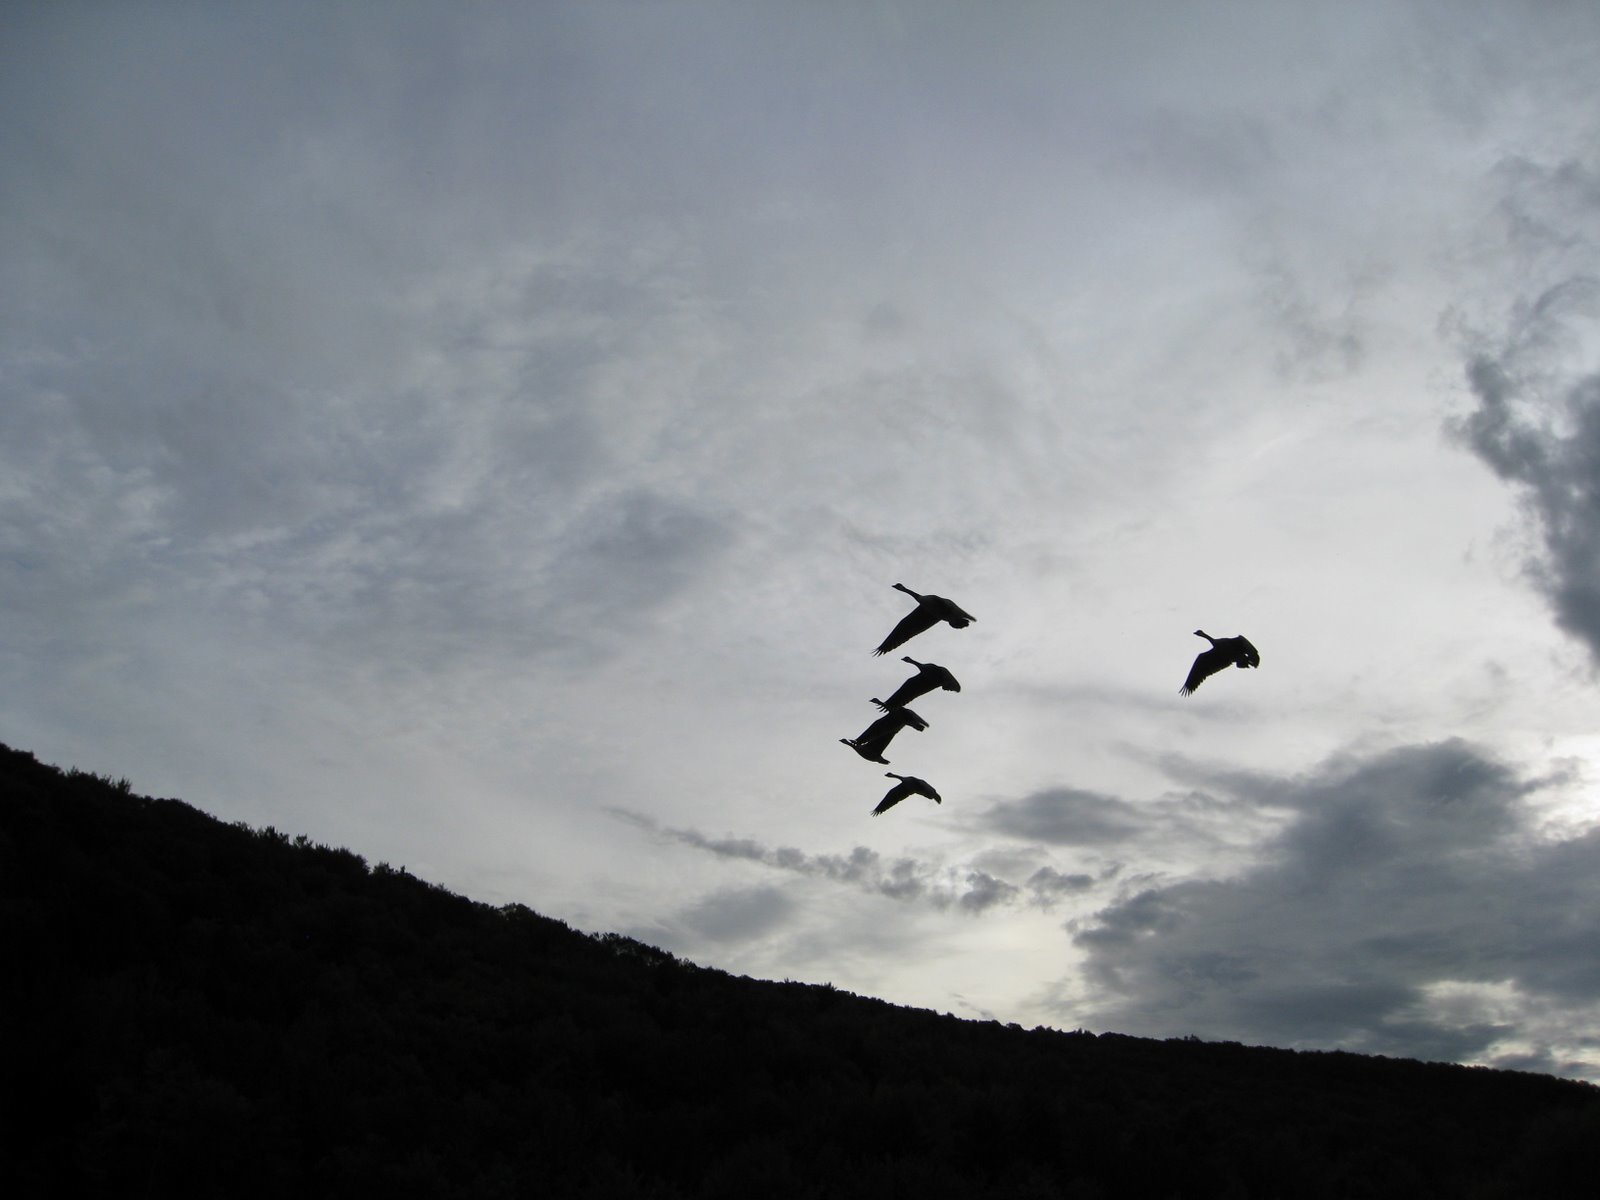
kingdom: Animalia
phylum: Chordata
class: Aves
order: Anseriformes
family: Anatidae
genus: Branta
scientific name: Branta canadensis
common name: Canada goose
